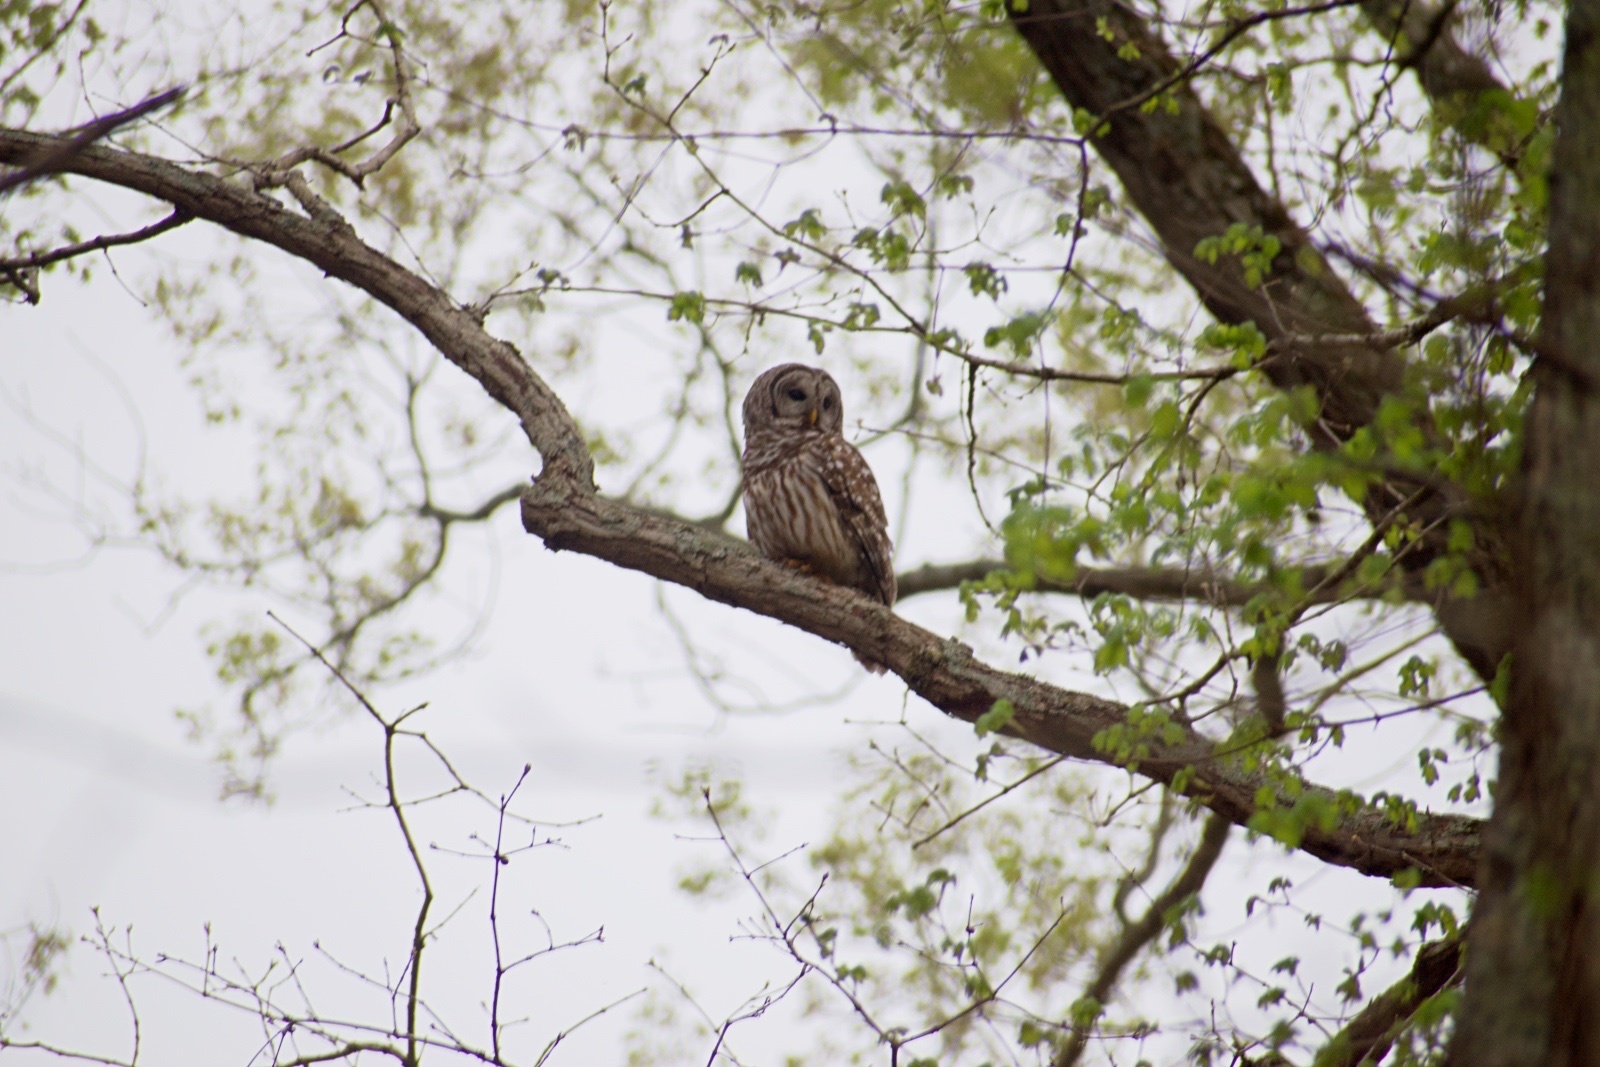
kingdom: Animalia
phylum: Chordata
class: Aves
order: Strigiformes
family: Strigidae
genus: Strix
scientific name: Strix varia
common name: Barred owl
